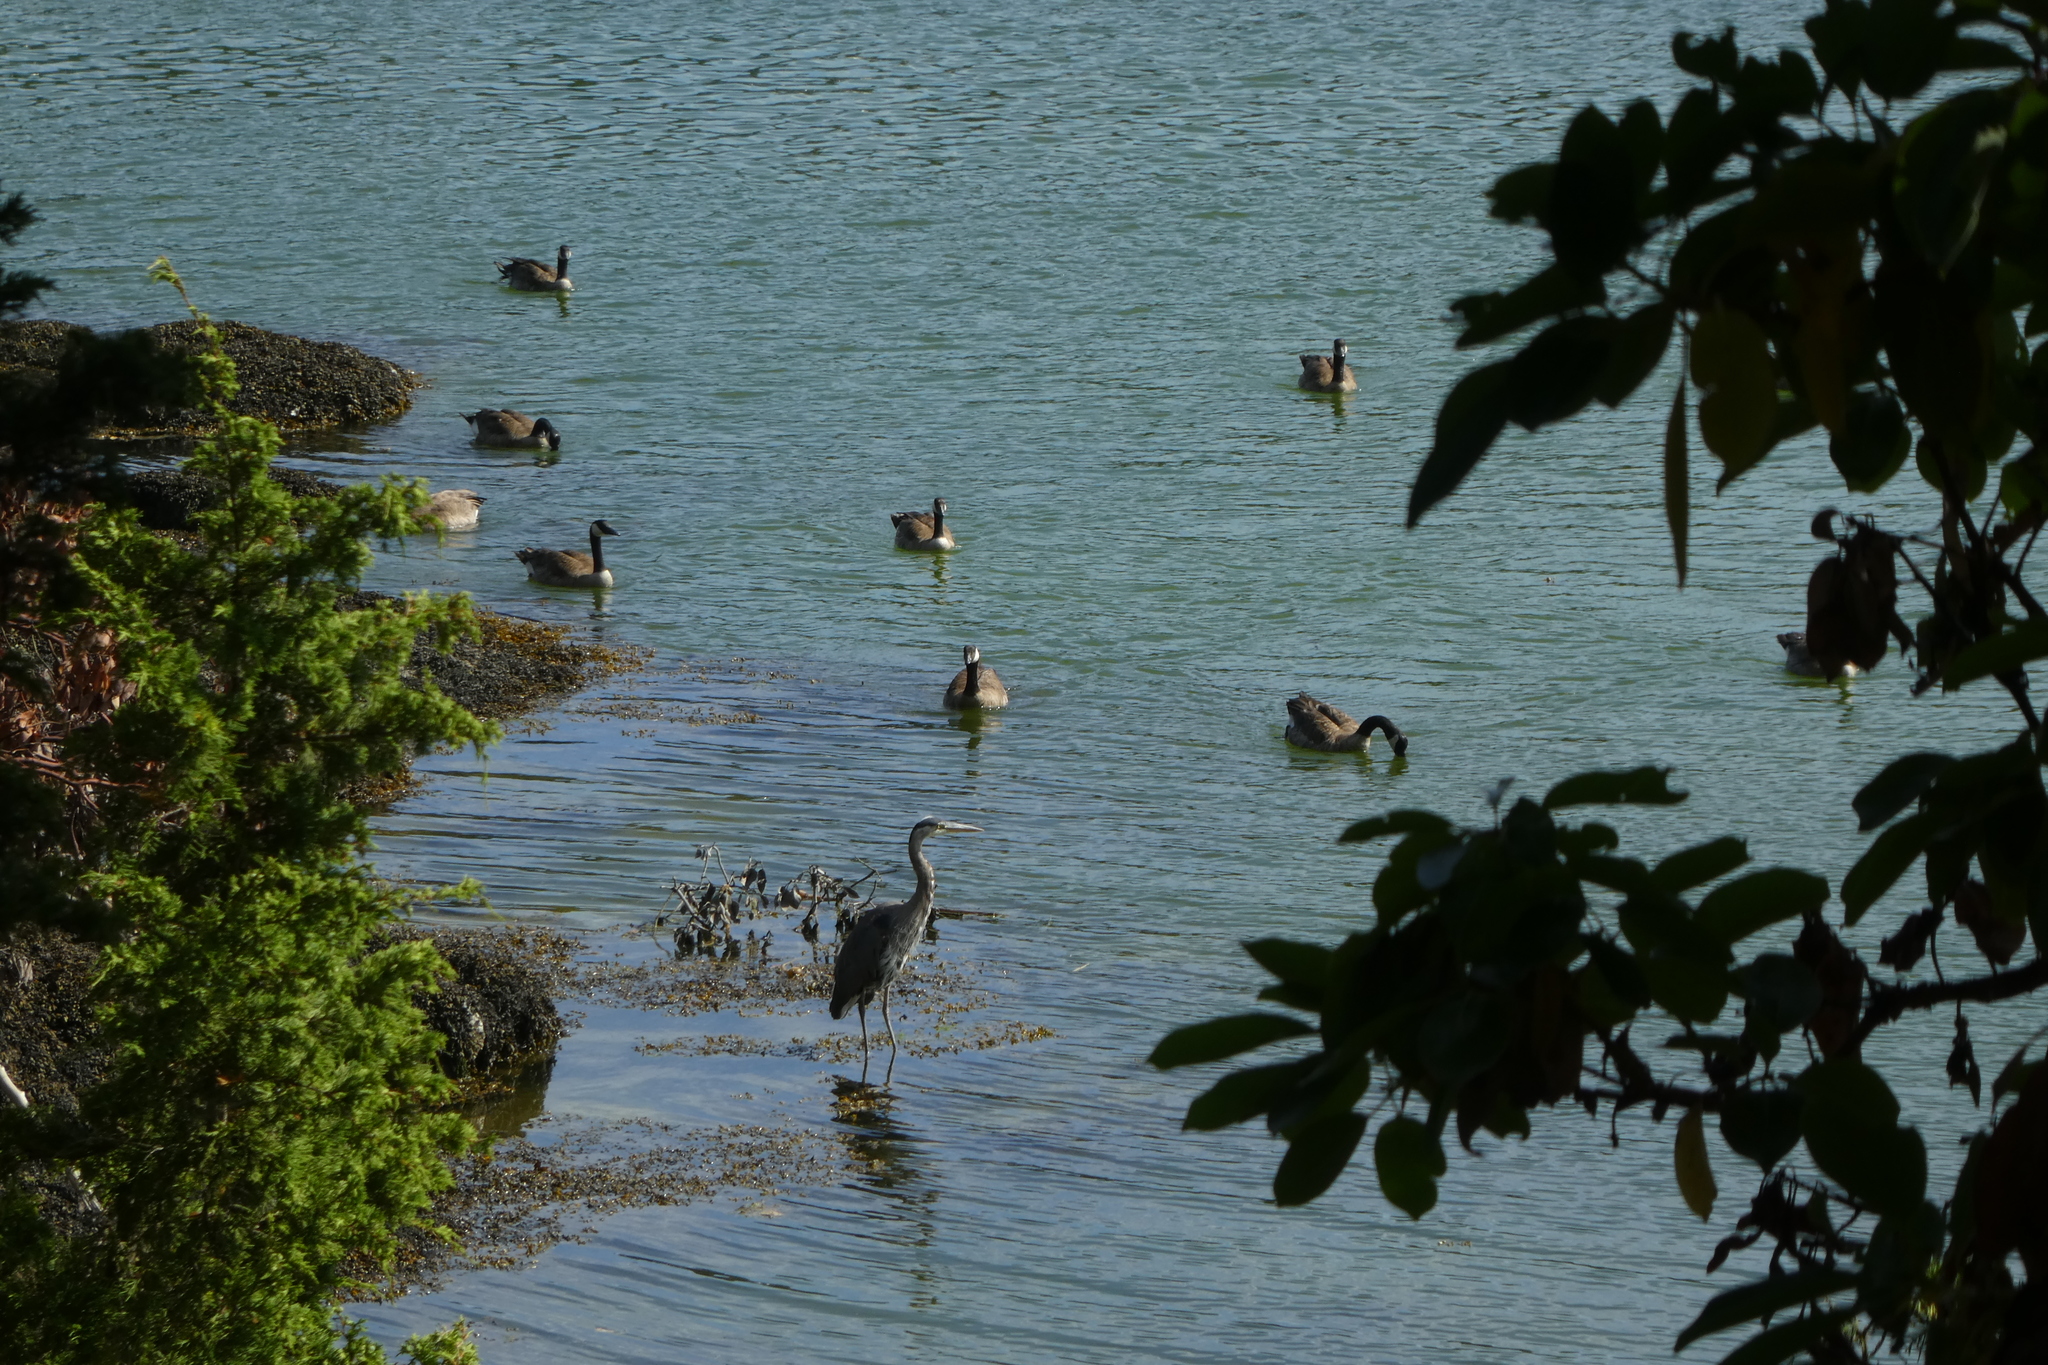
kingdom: Animalia
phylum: Chordata
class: Aves
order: Anseriformes
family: Anatidae
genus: Branta
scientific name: Branta canadensis
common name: Canada goose
